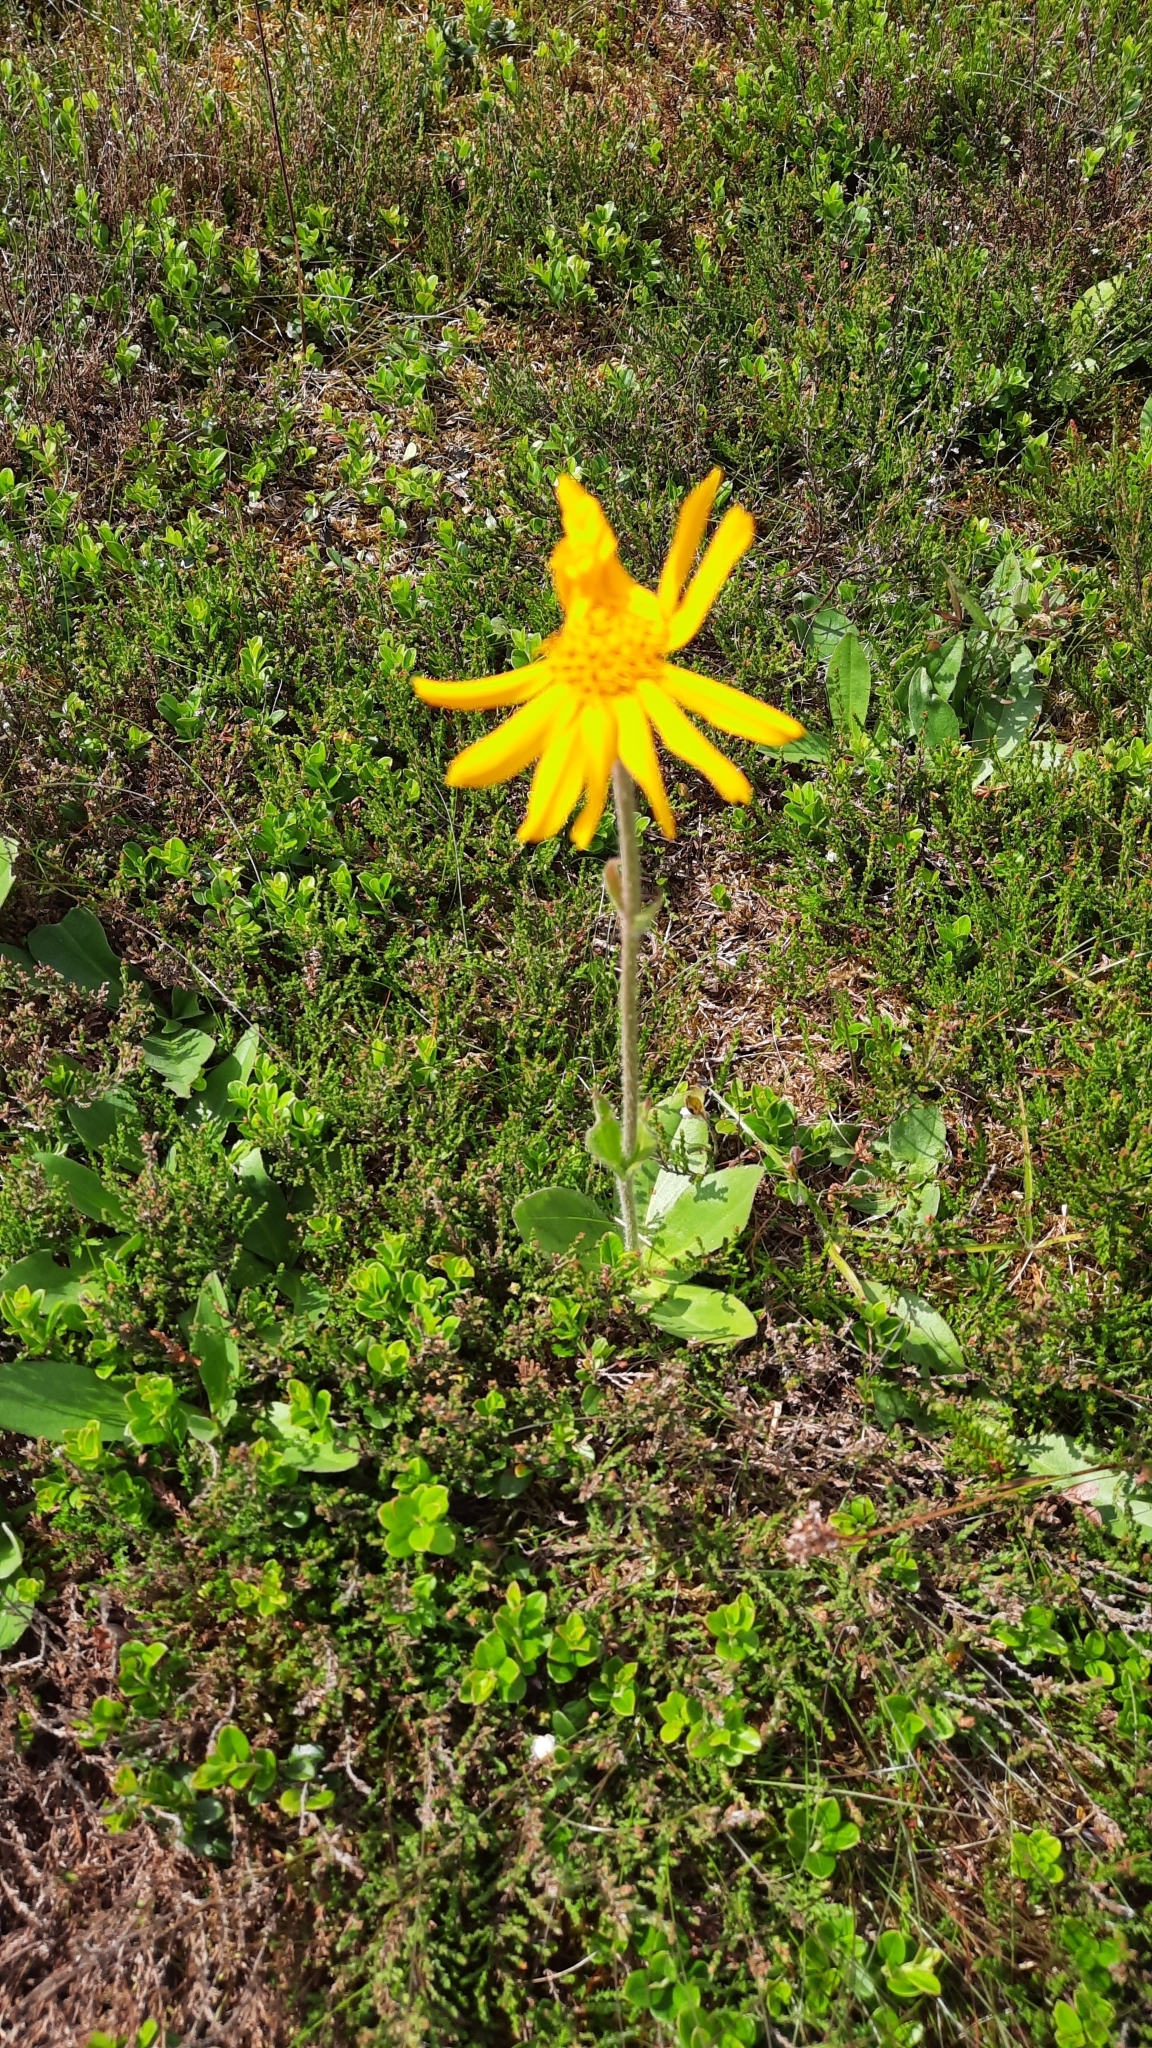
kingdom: Plantae
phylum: Tracheophyta
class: Magnoliopsida
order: Asterales
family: Asteraceae
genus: Arnica
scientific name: Arnica montana
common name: Leopard's bane
